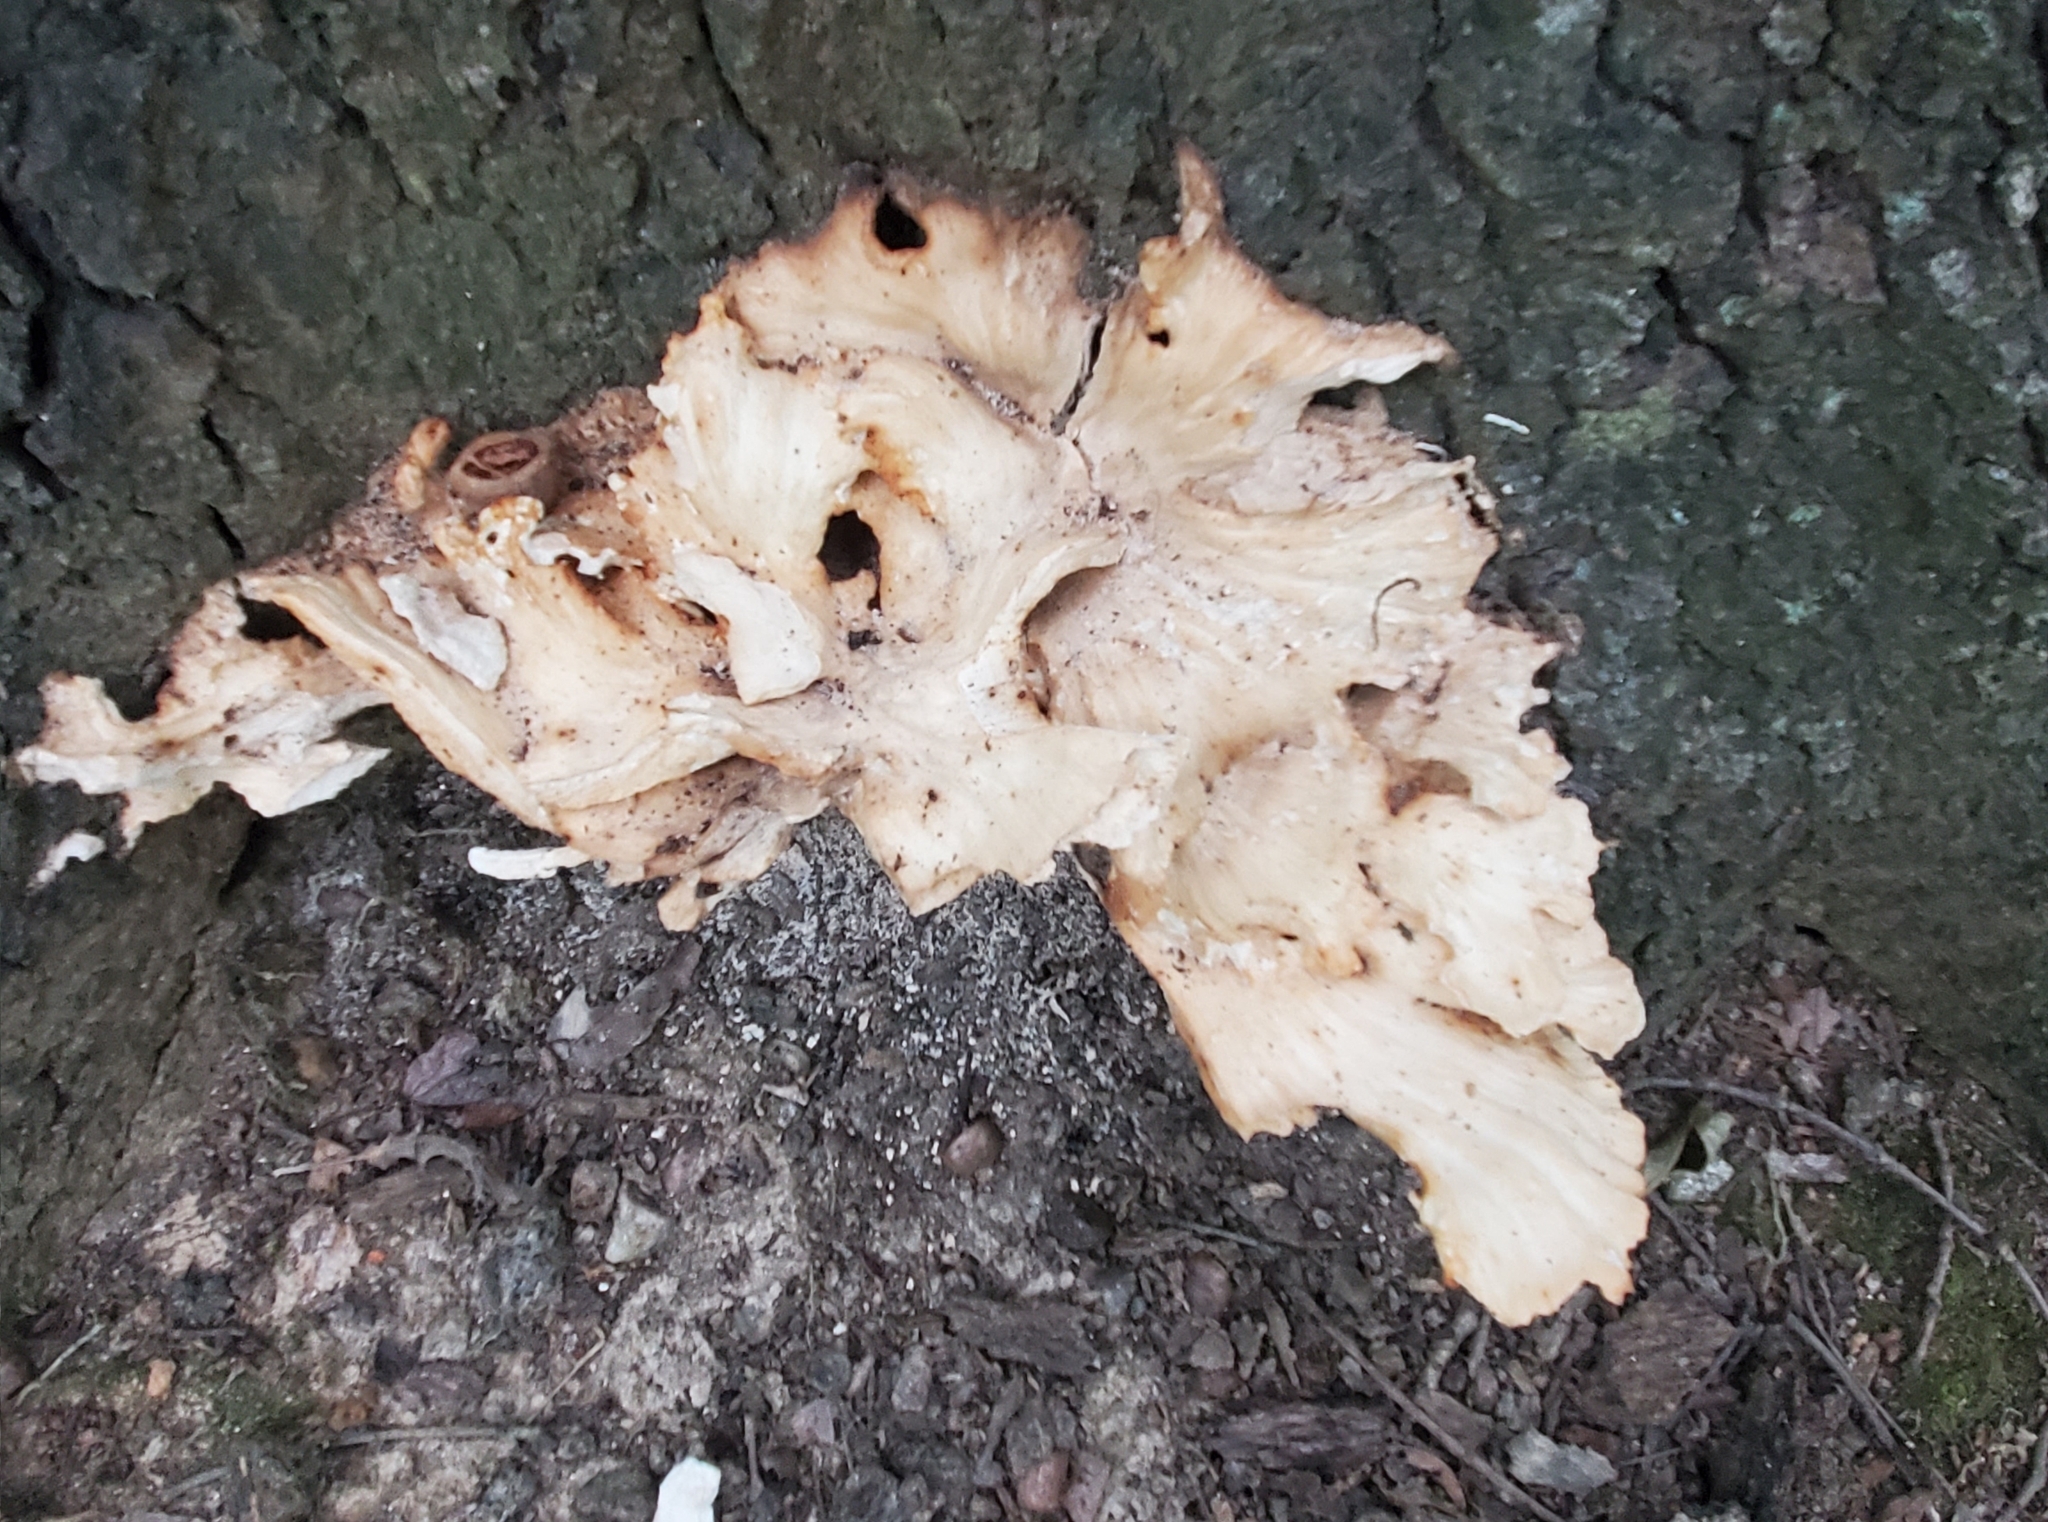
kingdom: Fungi
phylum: Basidiomycota
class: Agaricomycetes
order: Polyporales
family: Grifolaceae
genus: Grifola
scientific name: Grifola frondosa
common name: Hen of the woods
